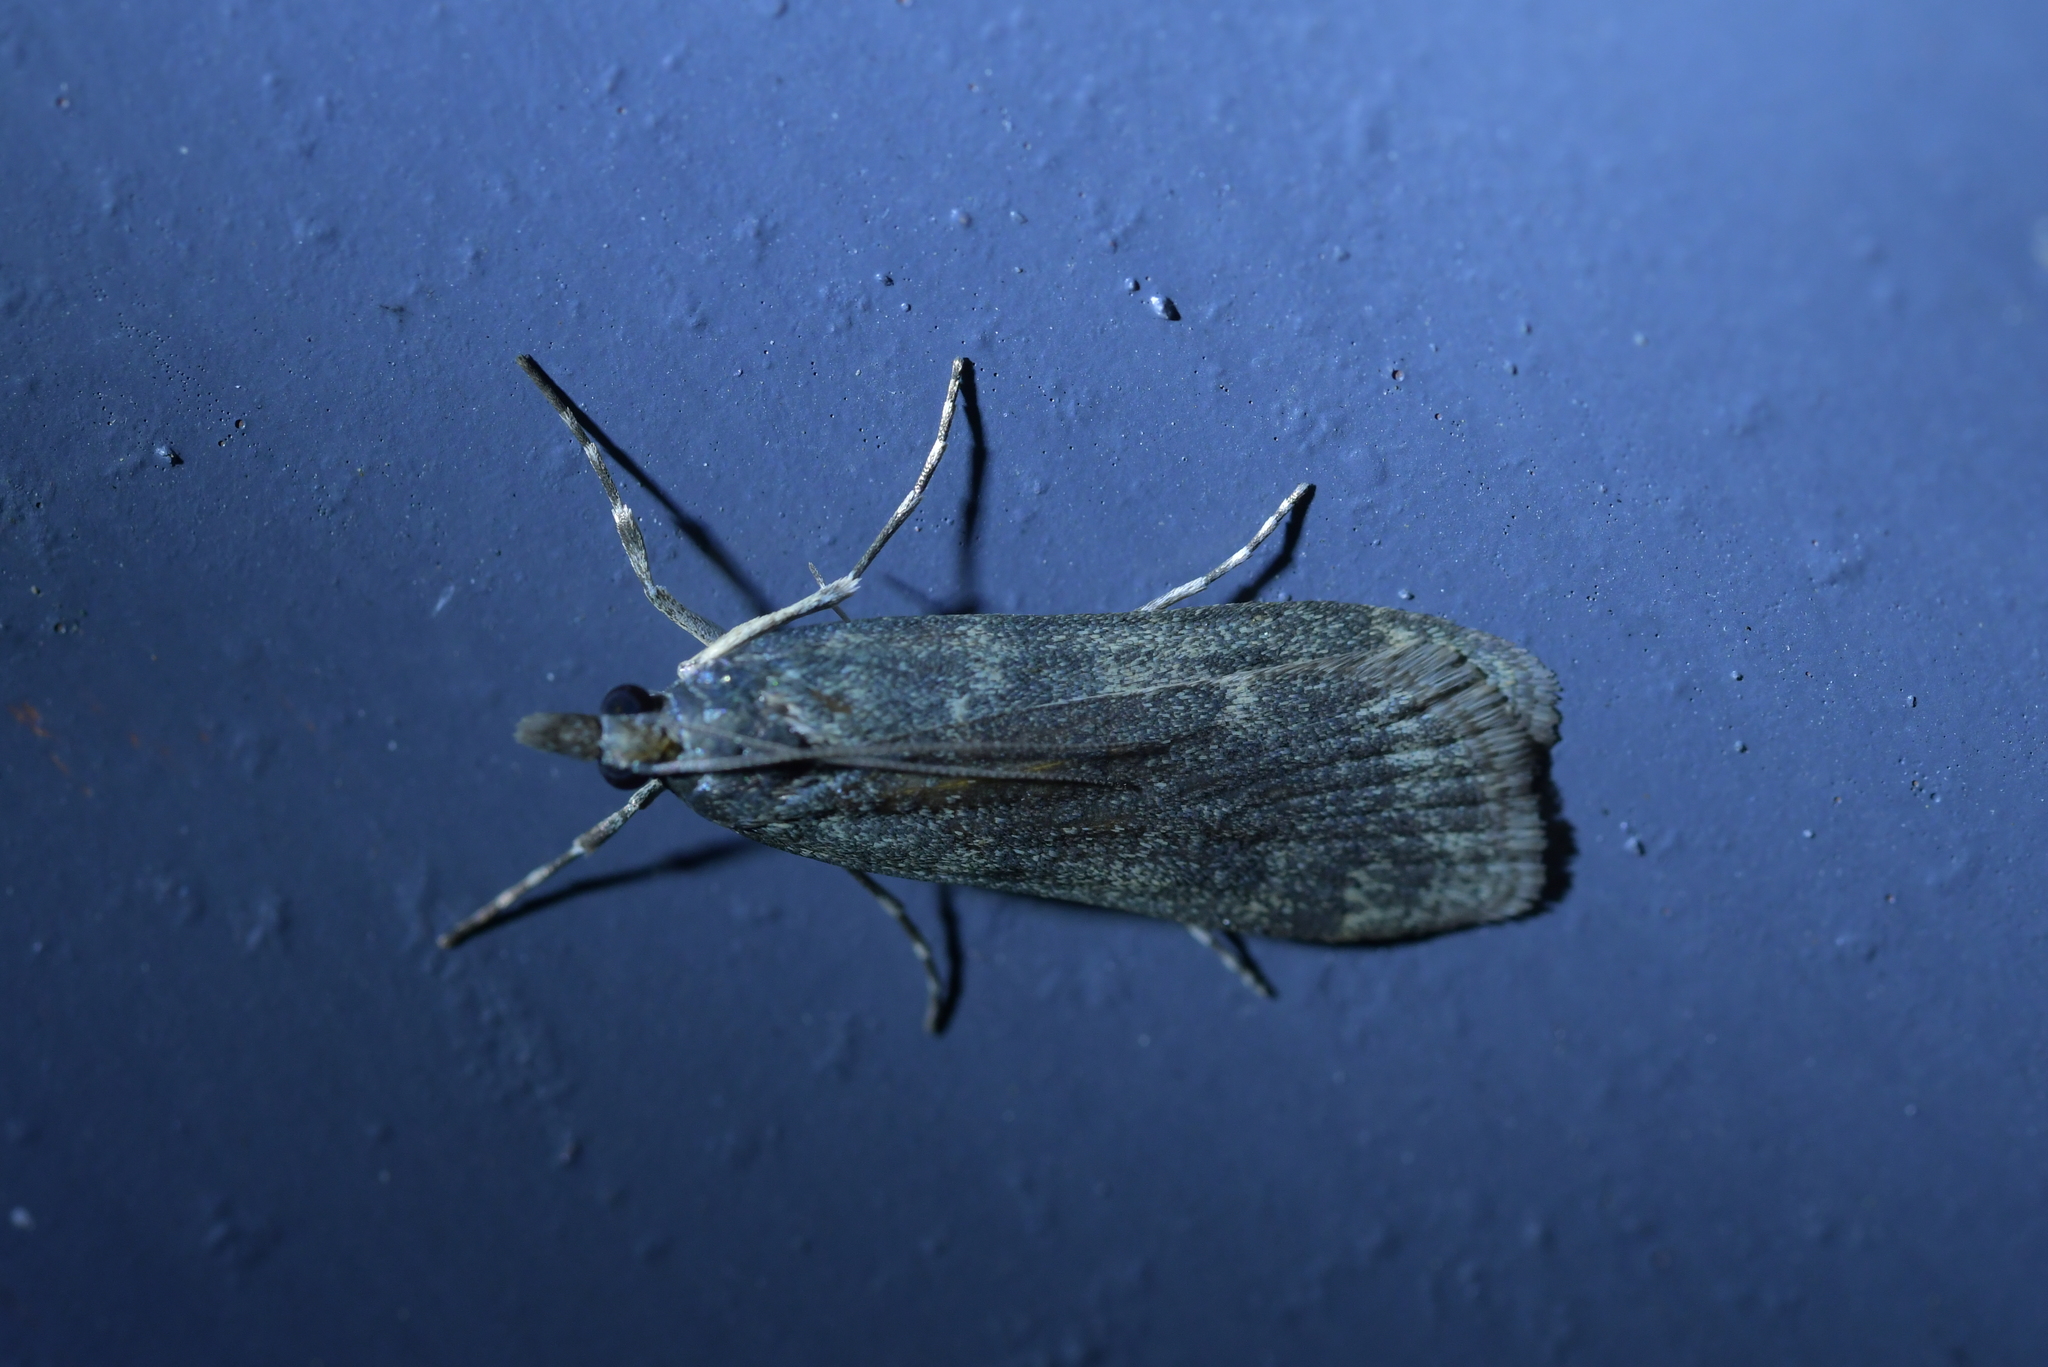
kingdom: Animalia
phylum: Arthropoda
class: Insecta
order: Lepidoptera
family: Crambidae
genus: Eudonia
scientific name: Eudonia cataxesta
